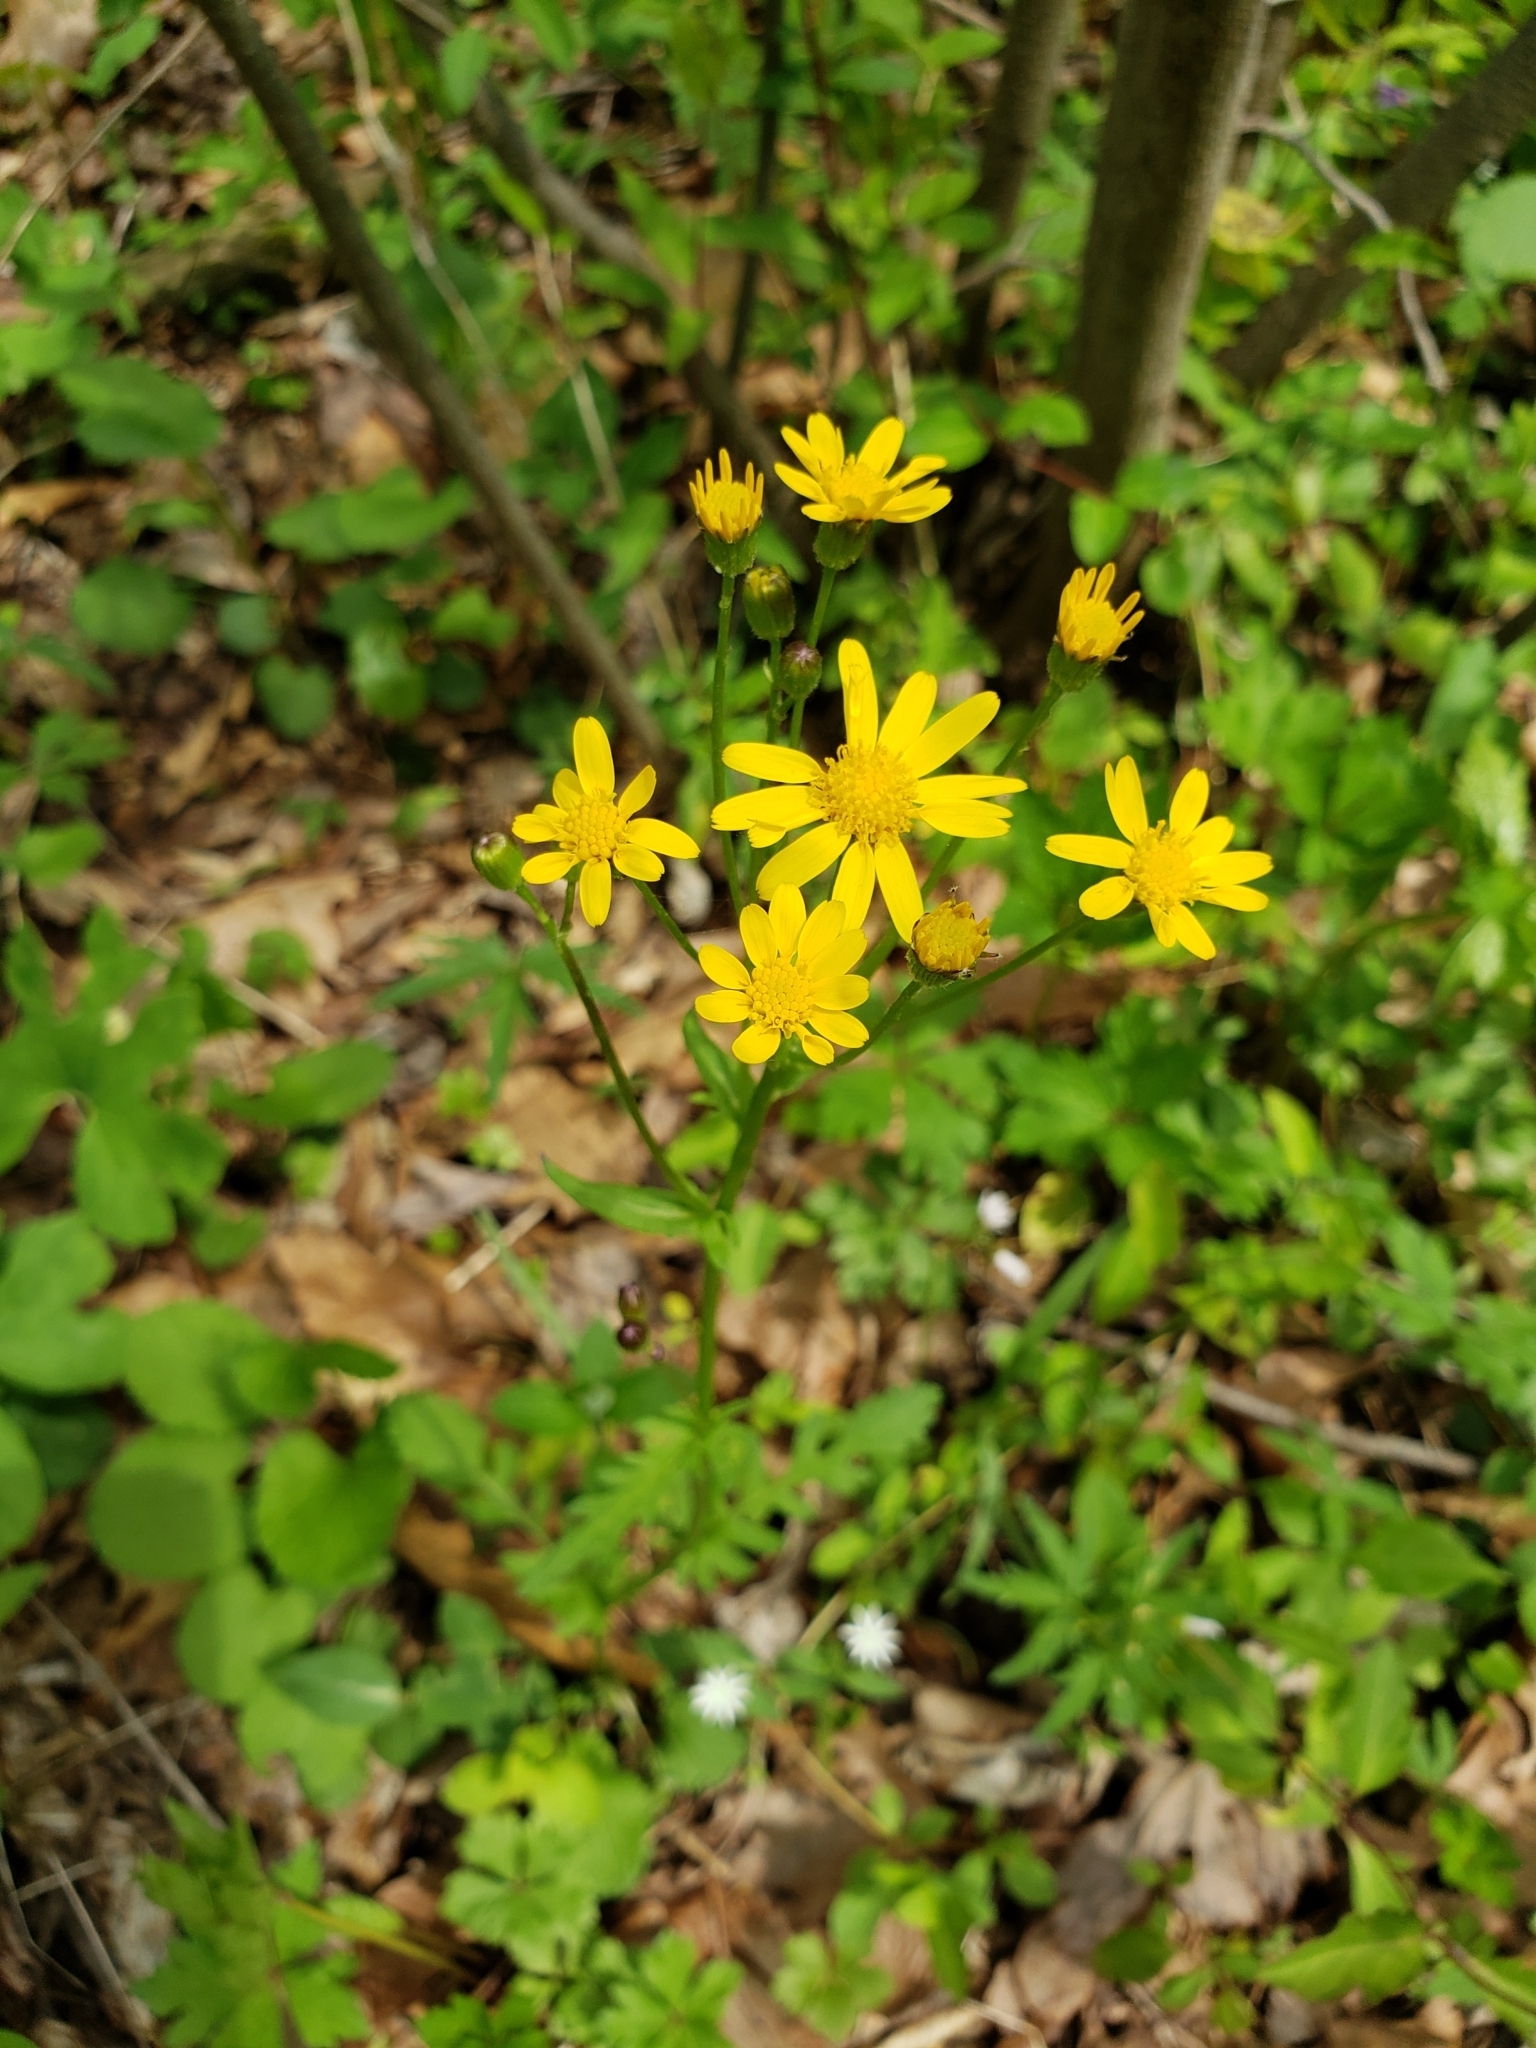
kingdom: Plantae
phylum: Tracheophyta
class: Magnoliopsida
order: Asterales
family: Asteraceae
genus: Packera
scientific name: Packera aurea
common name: Golden groundsel
